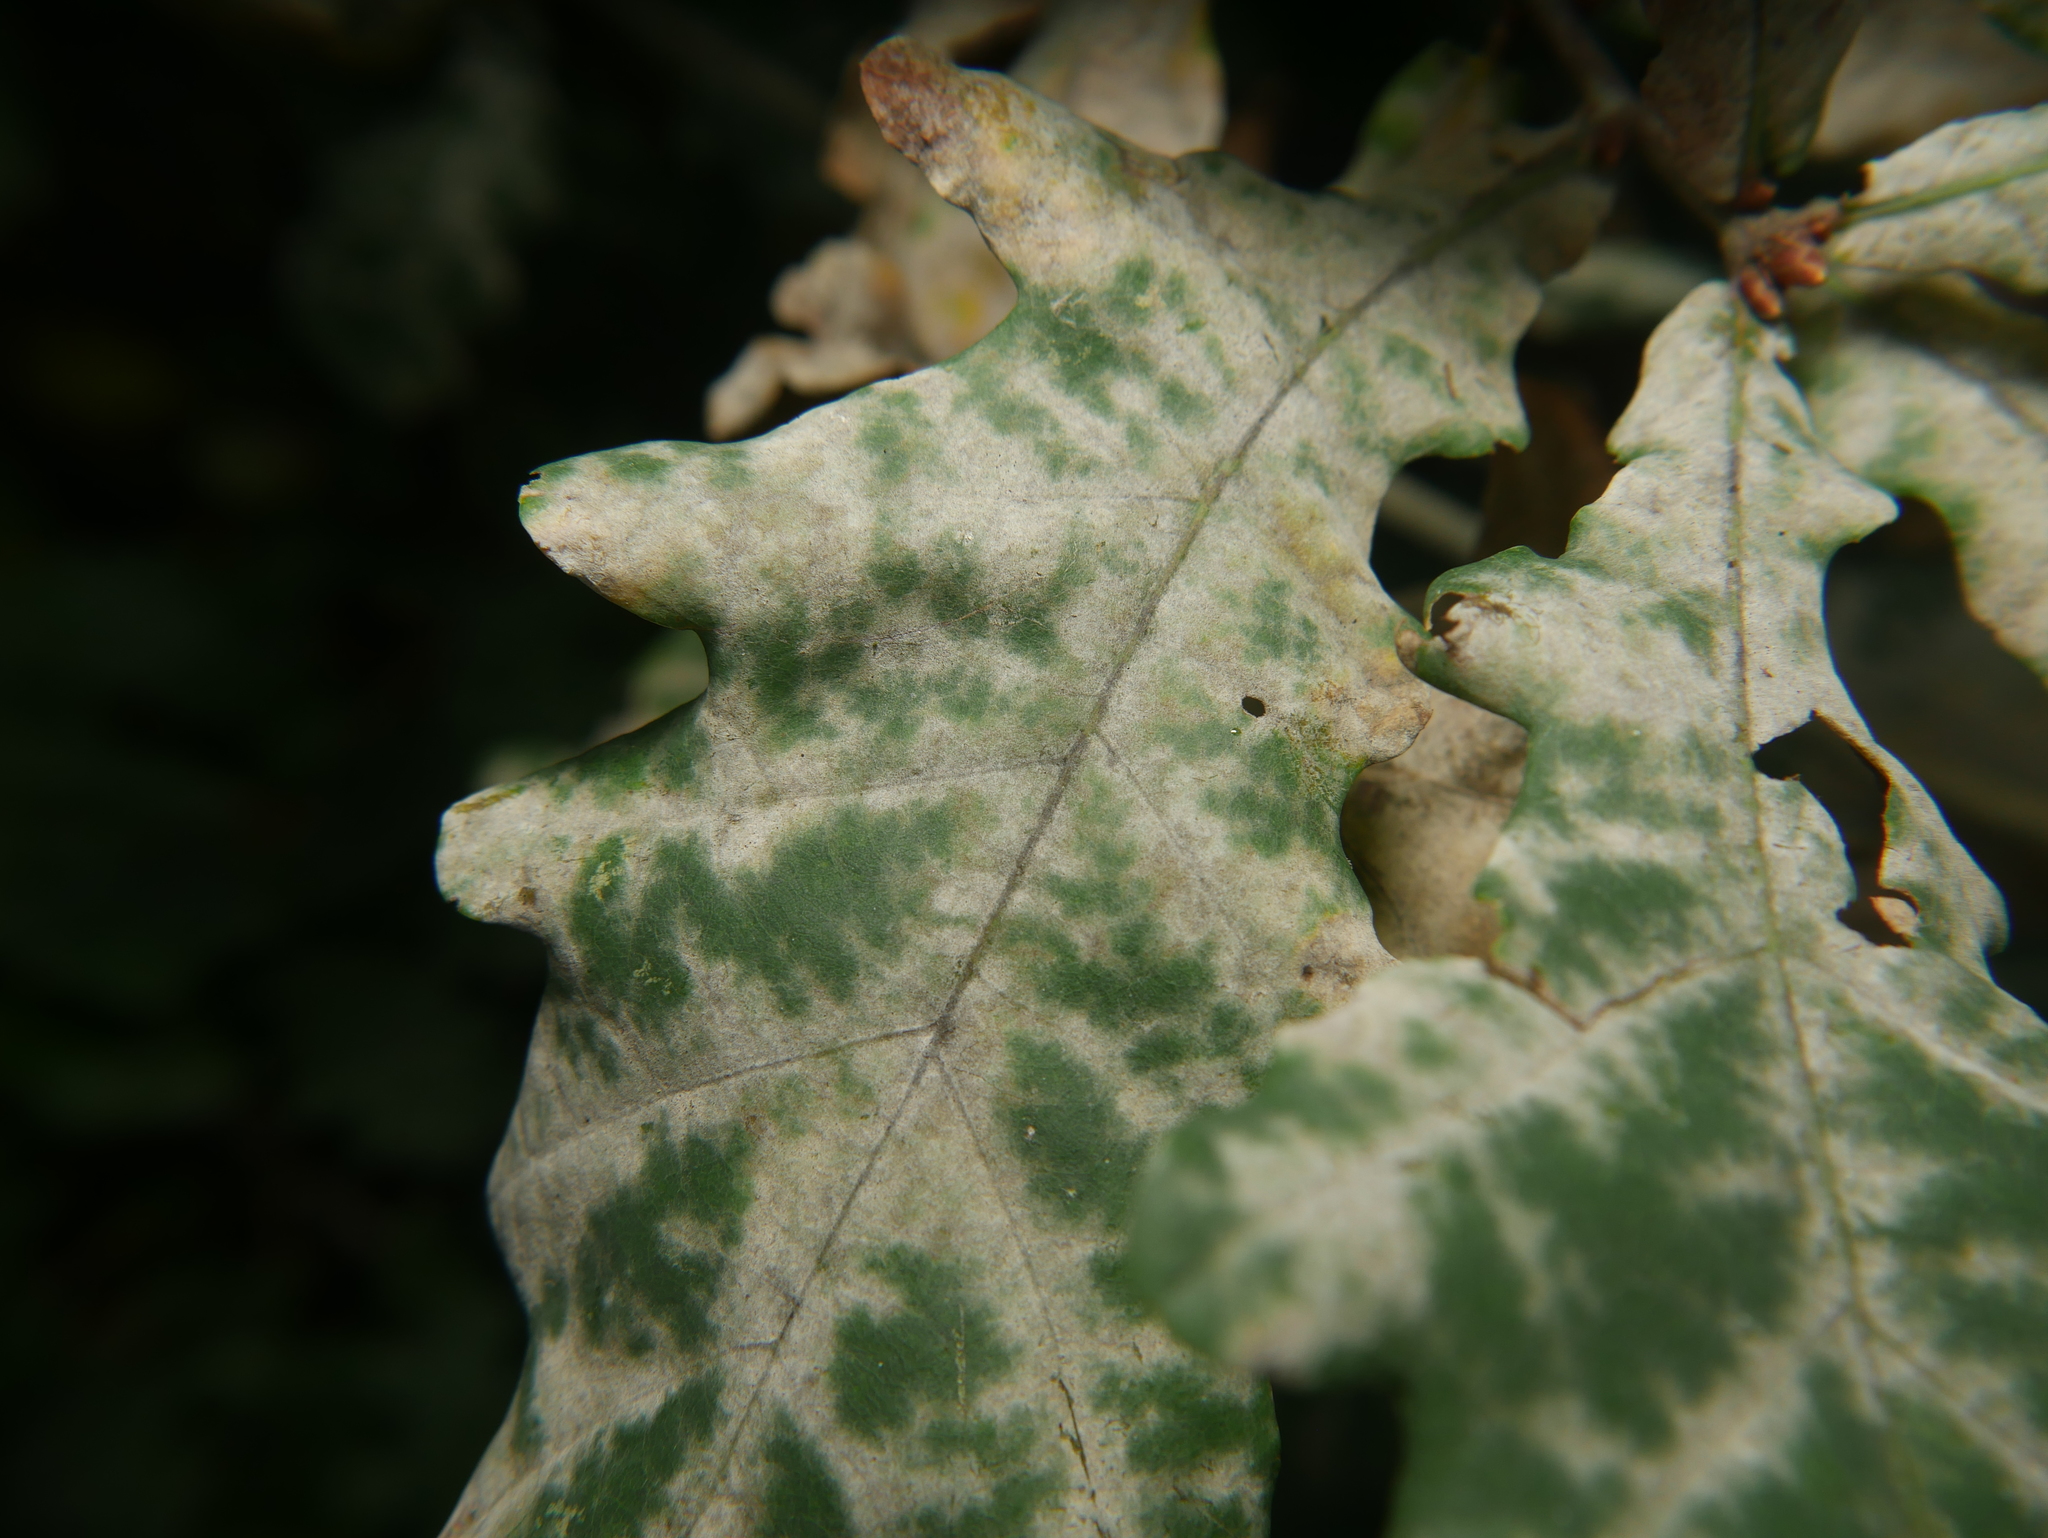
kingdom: Fungi
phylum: Ascomycota
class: Leotiomycetes
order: Helotiales
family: Erysiphaceae
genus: Erysiphe
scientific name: Erysiphe
